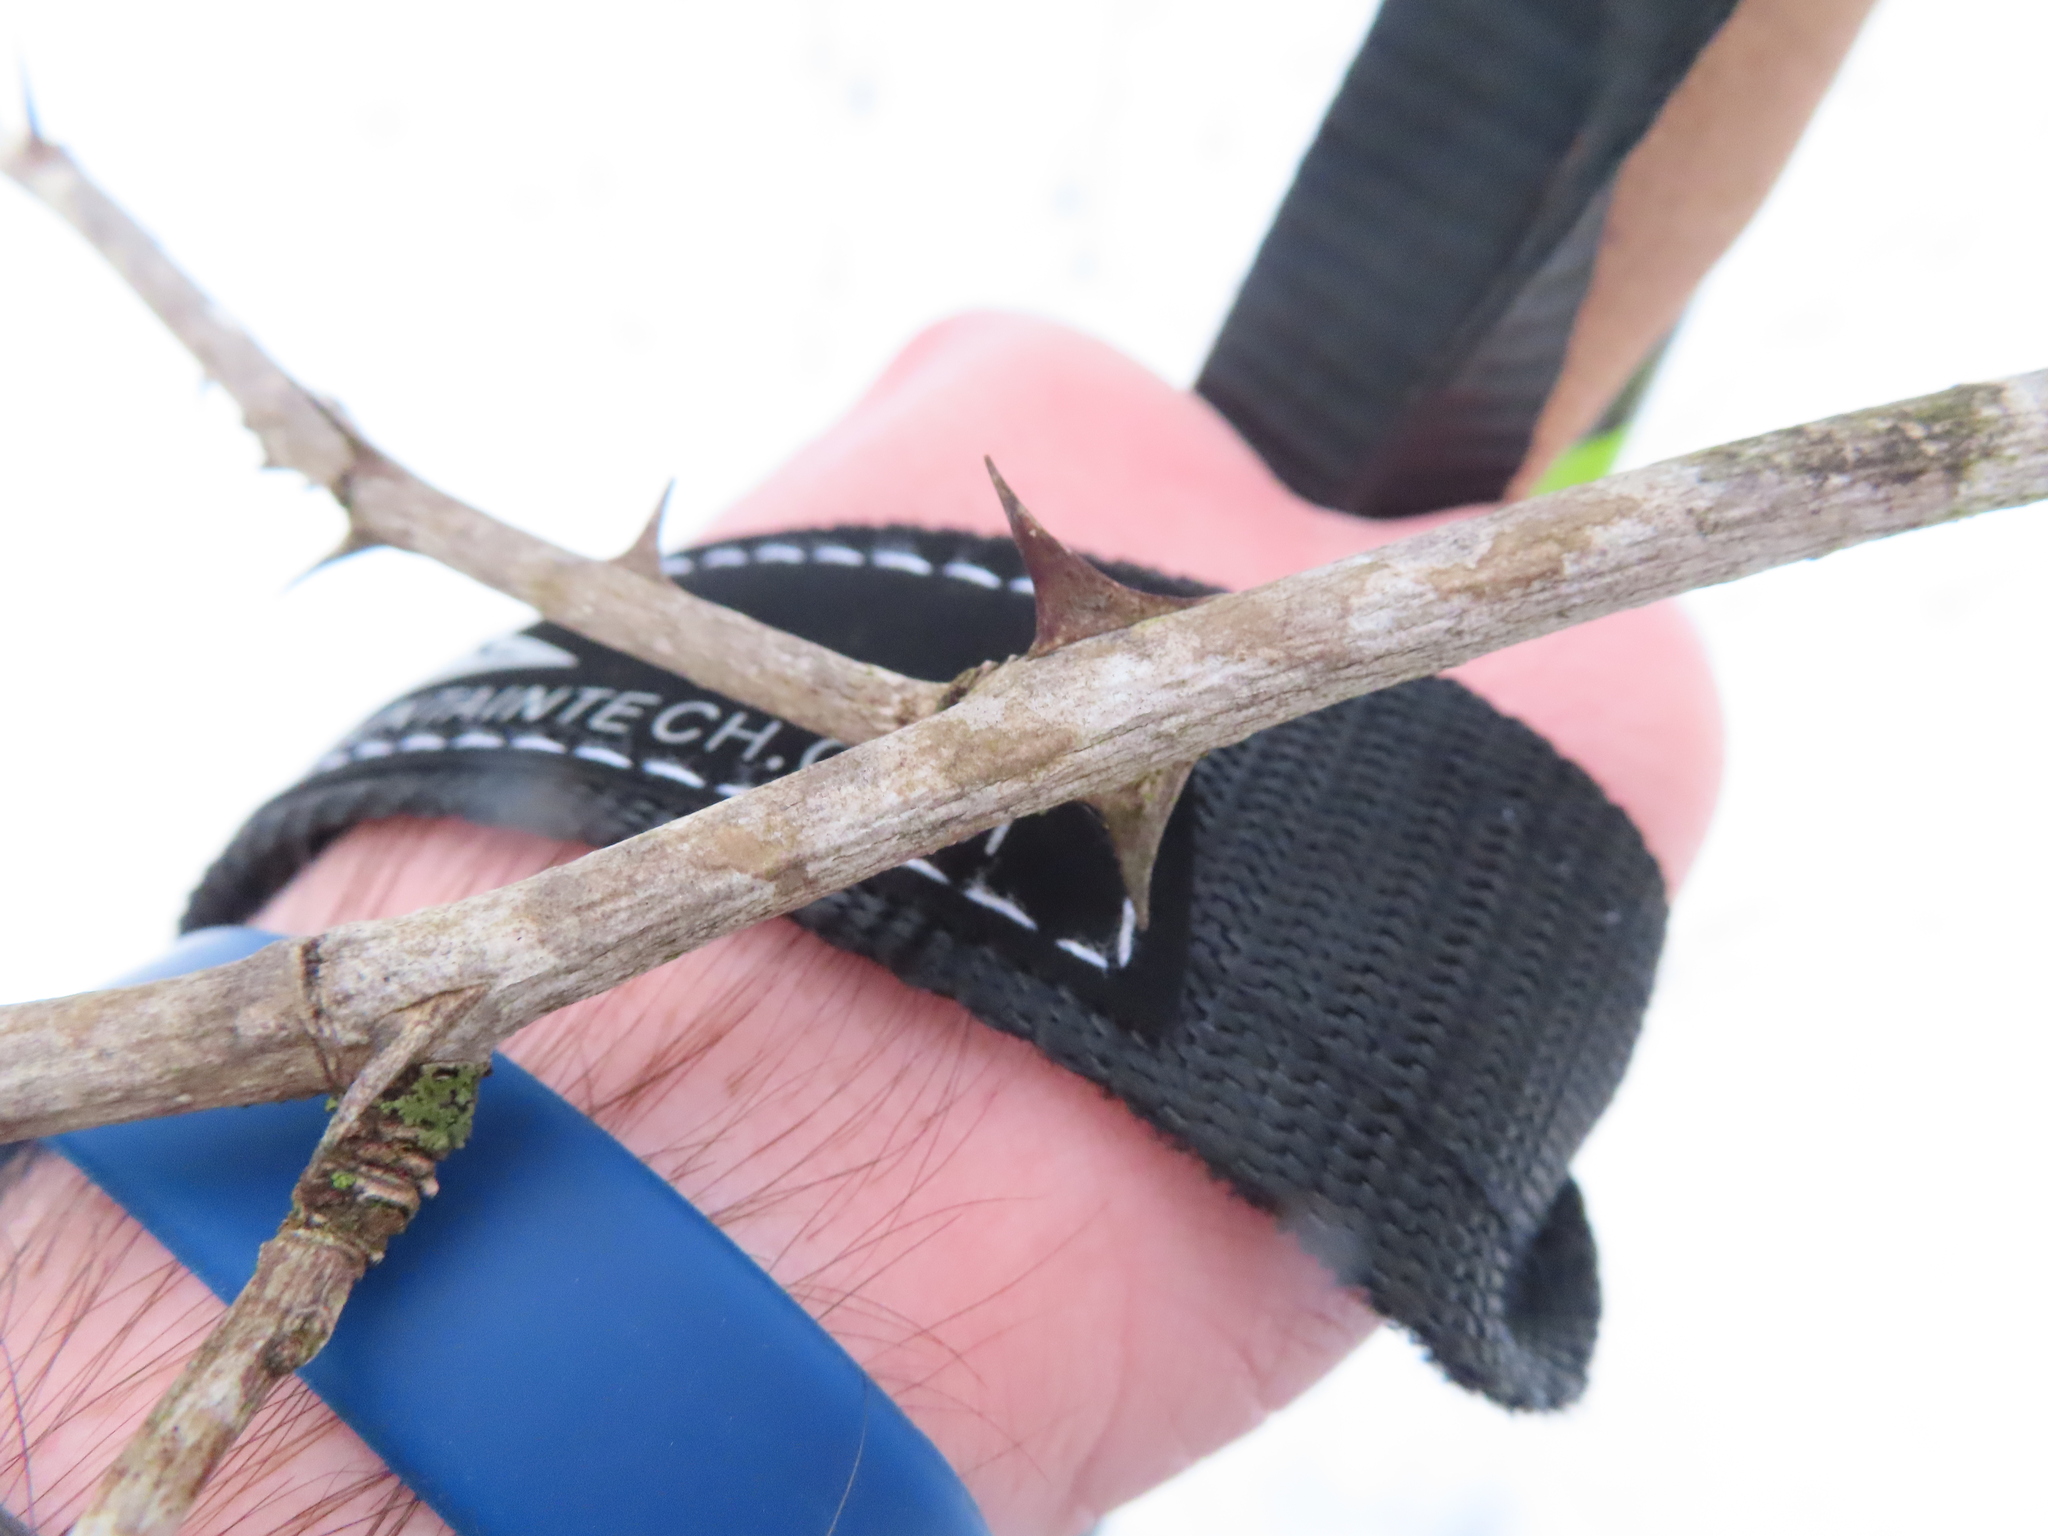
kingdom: Plantae
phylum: Tracheophyta
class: Magnoliopsida
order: Sapindales
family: Rutaceae
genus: Zanthoxylum
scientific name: Zanthoxylum americanum
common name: Northern prickly-ash
